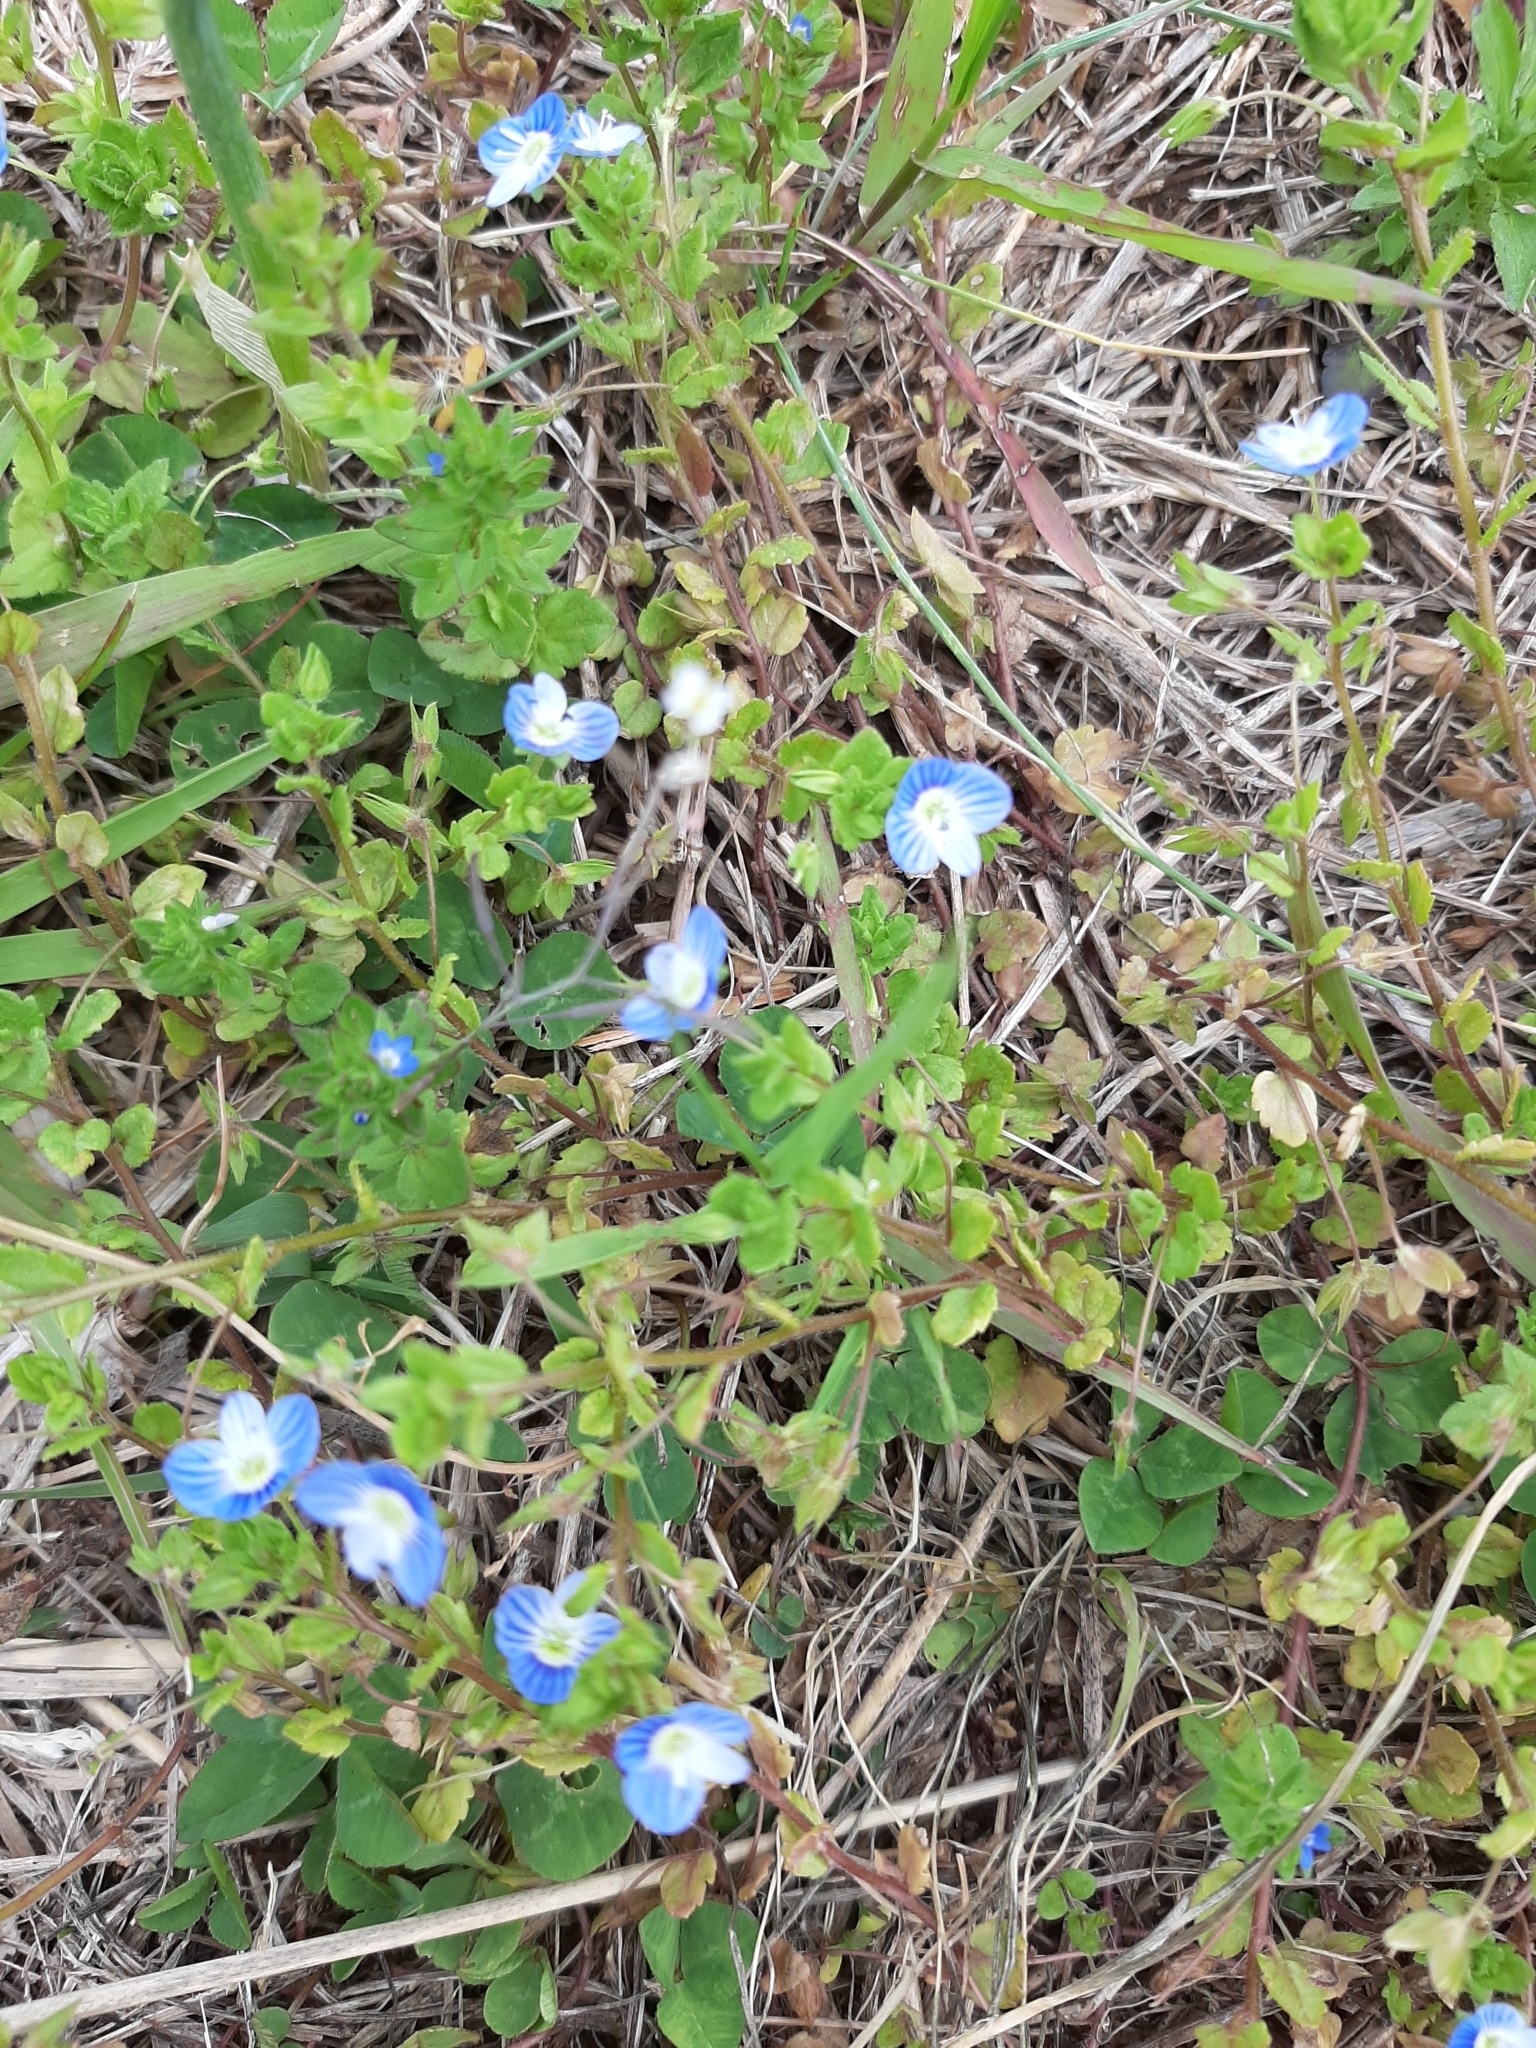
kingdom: Plantae
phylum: Tracheophyta
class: Magnoliopsida
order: Lamiales
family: Plantaginaceae
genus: Veronica
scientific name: Veronica persica
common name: Common field-speedwell
